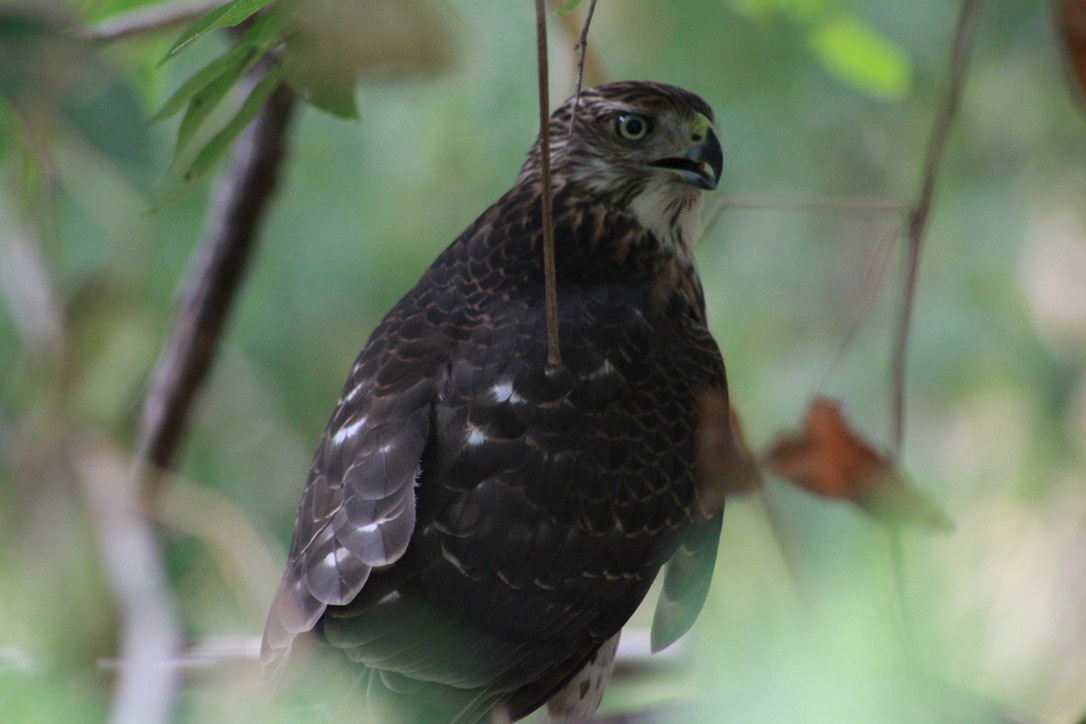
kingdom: Animalia
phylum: Chordata
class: Aves
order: Accipitriformes
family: Accipitridae
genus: Accipiter
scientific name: Accipiter cooperii
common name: Cooper's hawk
